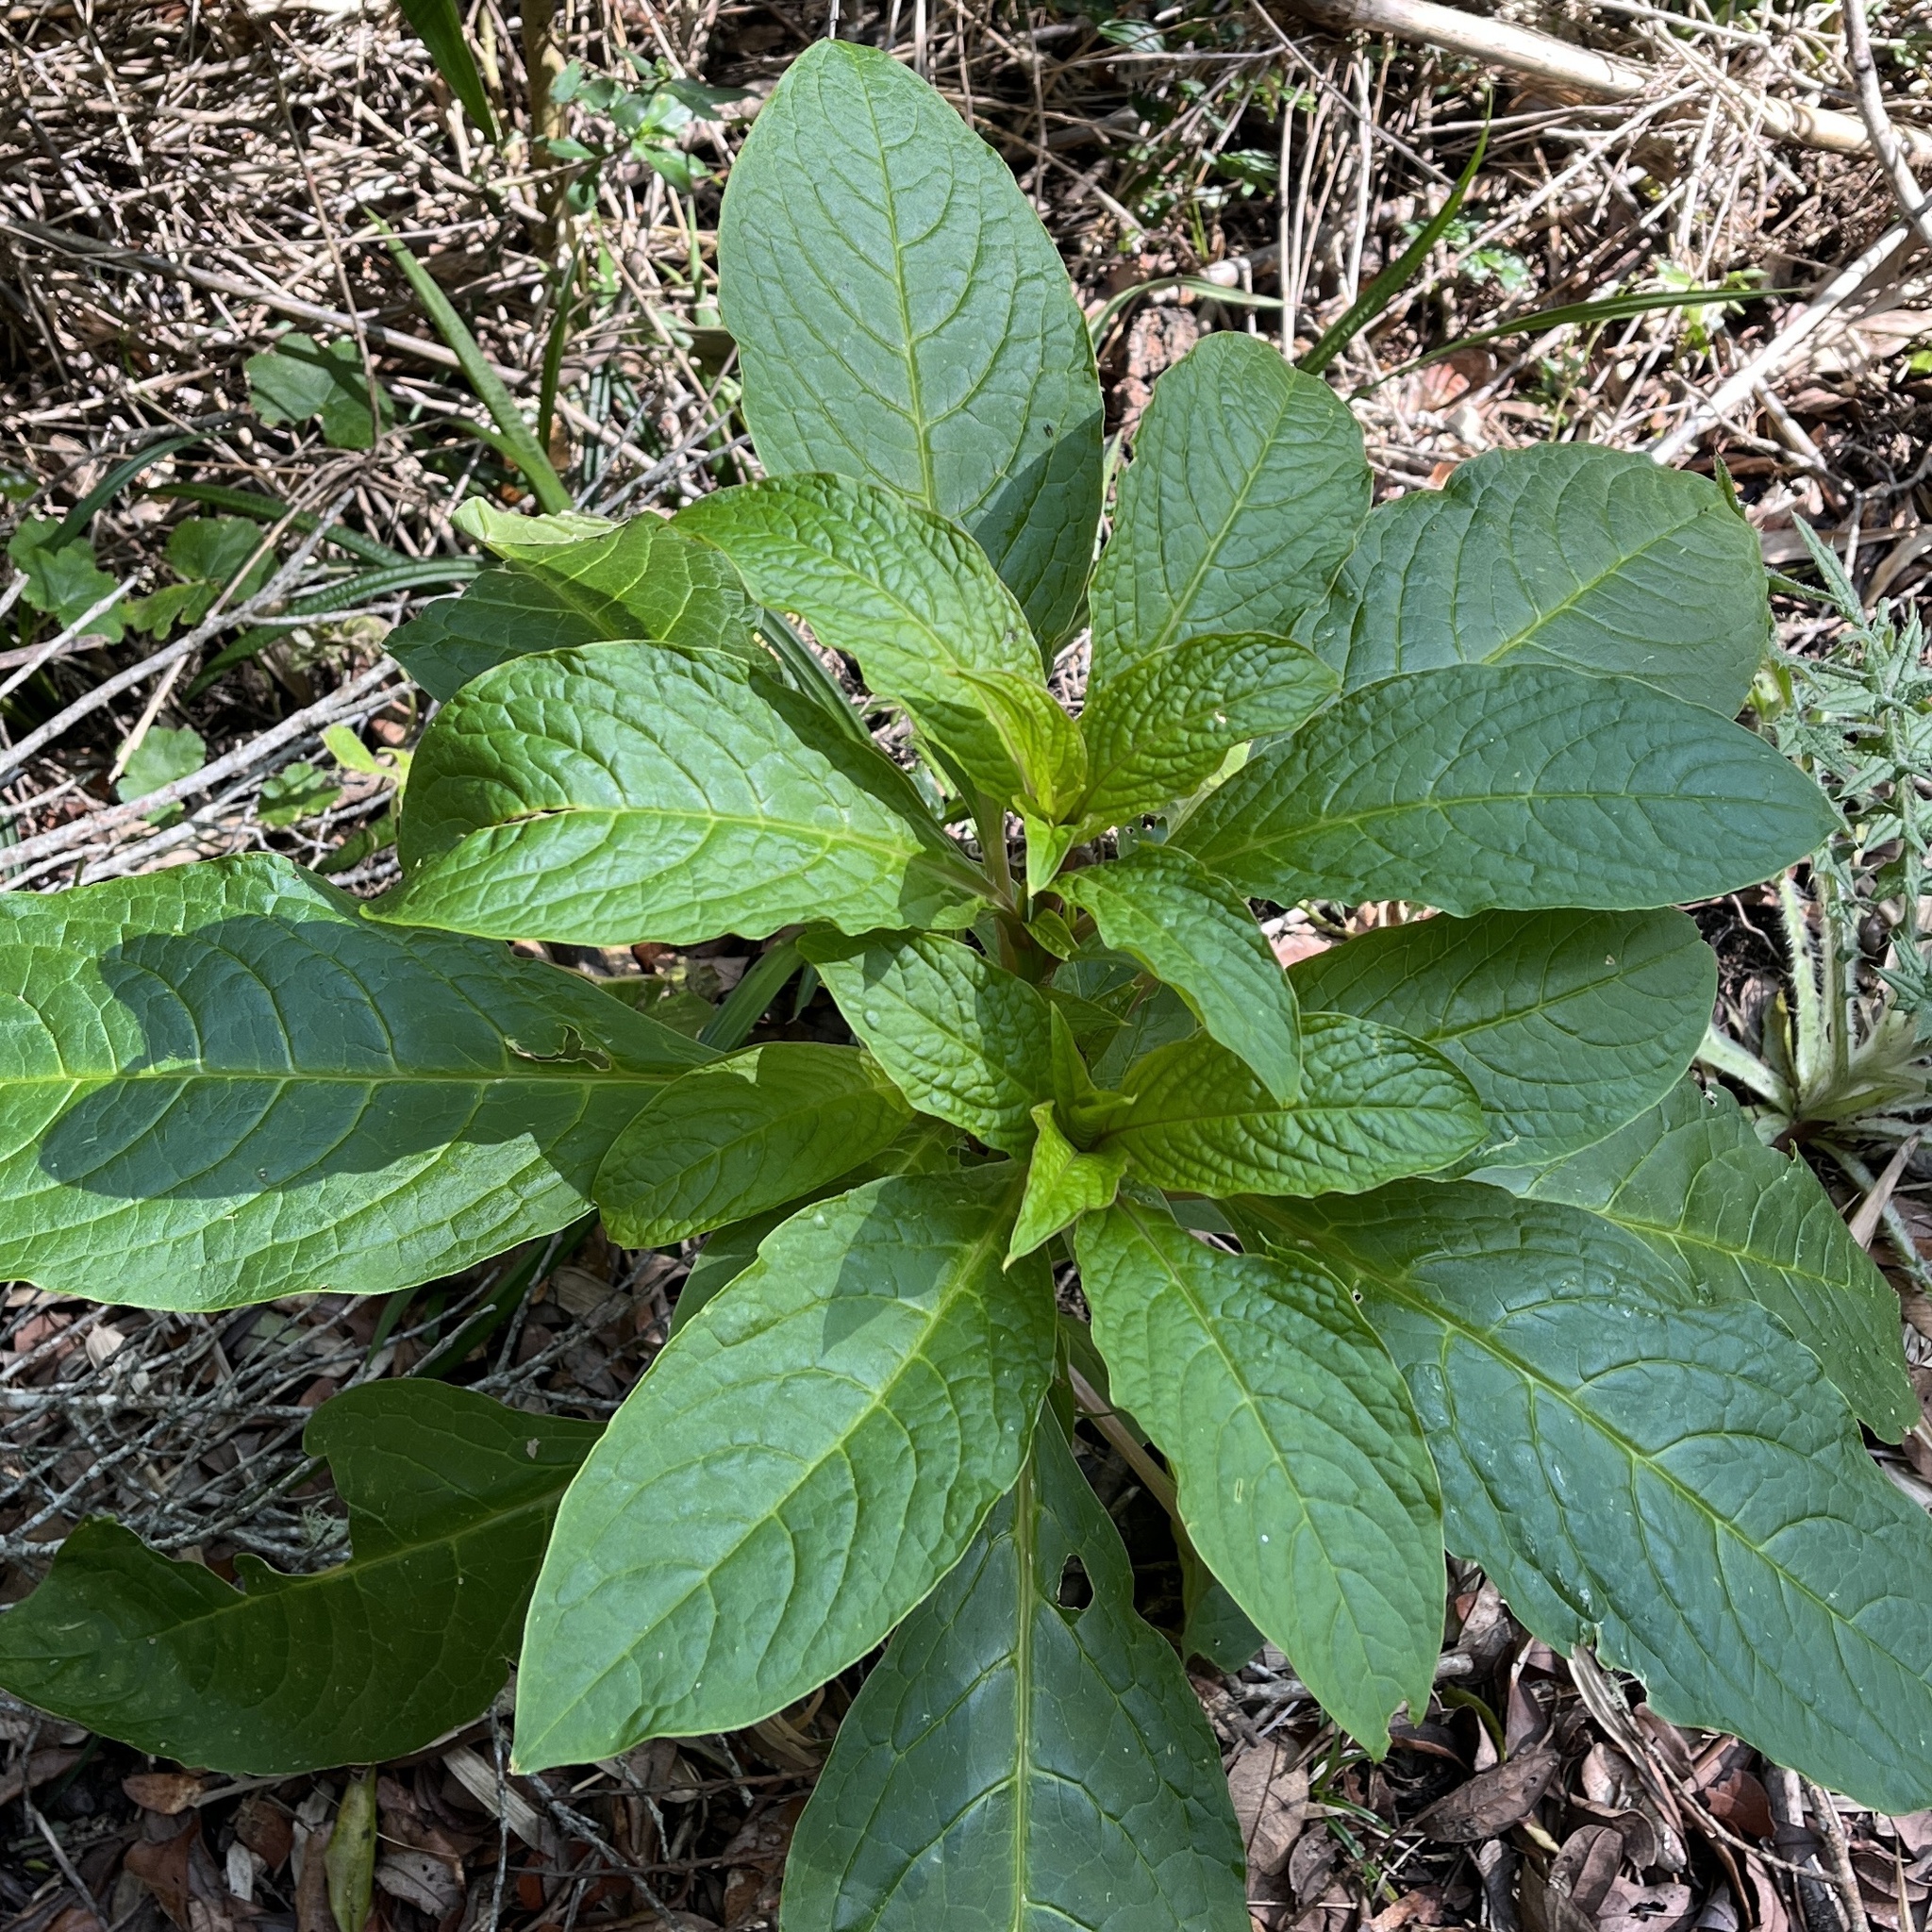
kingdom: Plantae
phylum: Tracheophyta
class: Magnoliopsida
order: Caryophyllales
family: Phytolaccaceae
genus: Phytolacca
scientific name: Phytolacca bogotensis
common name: Southern pokeweed
